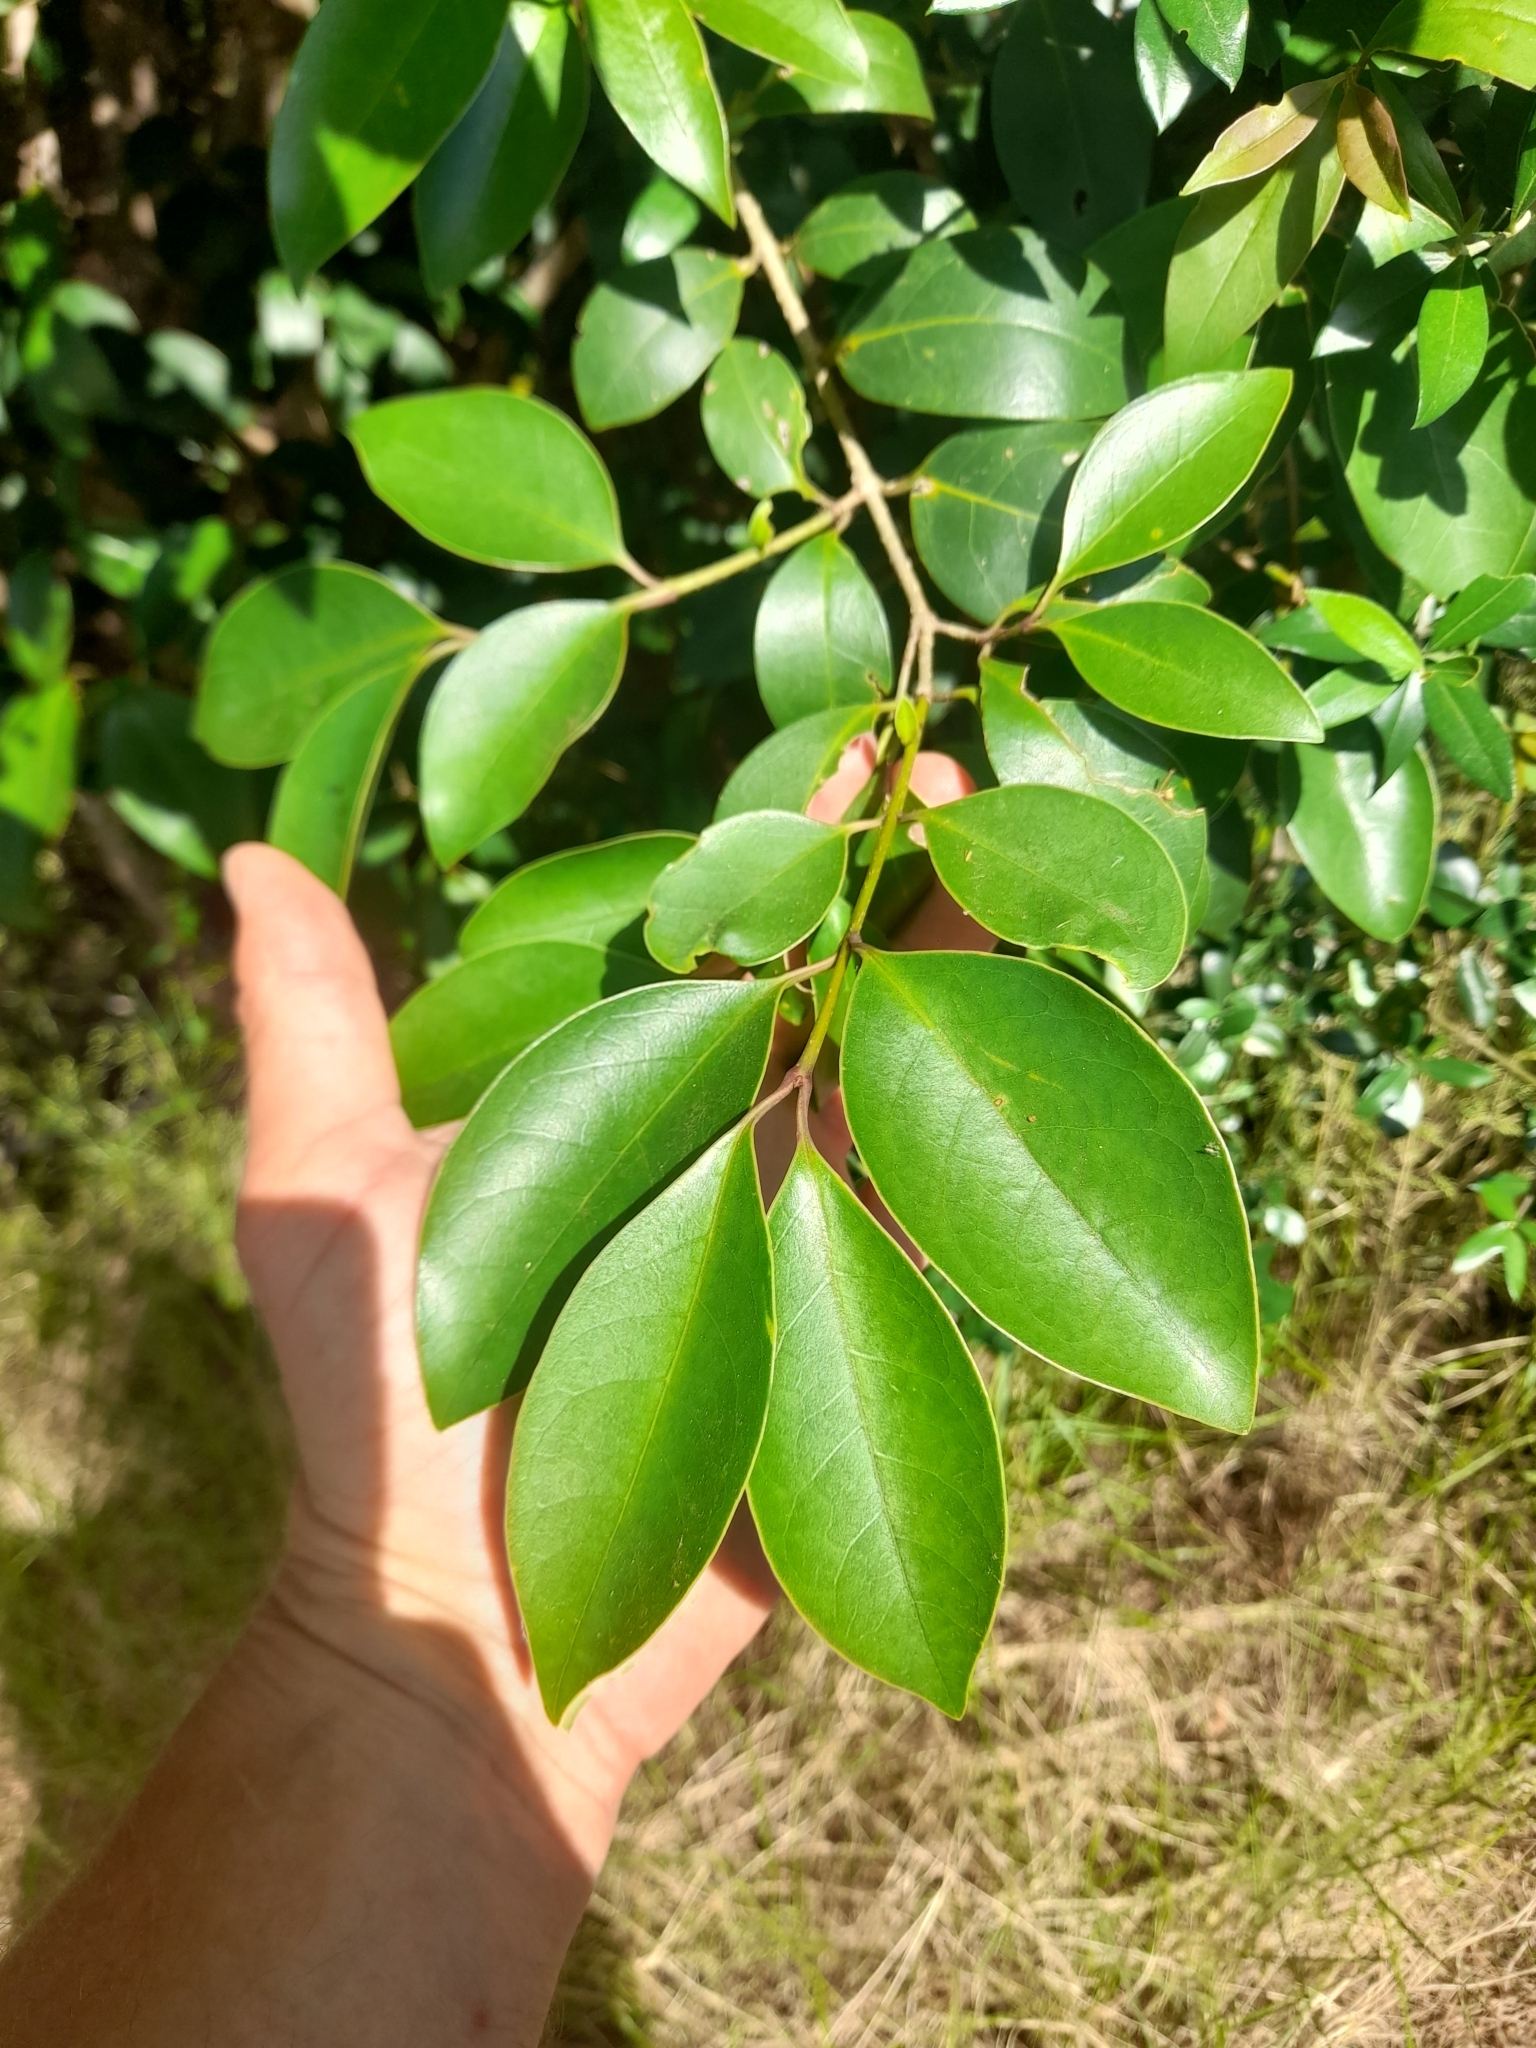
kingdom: Plantae
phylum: Tracheophyta
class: Magnoliopsida
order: Lamiales
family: Oleaceae
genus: Ligustrum
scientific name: Ligustrum lucidum
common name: Glossy privet
